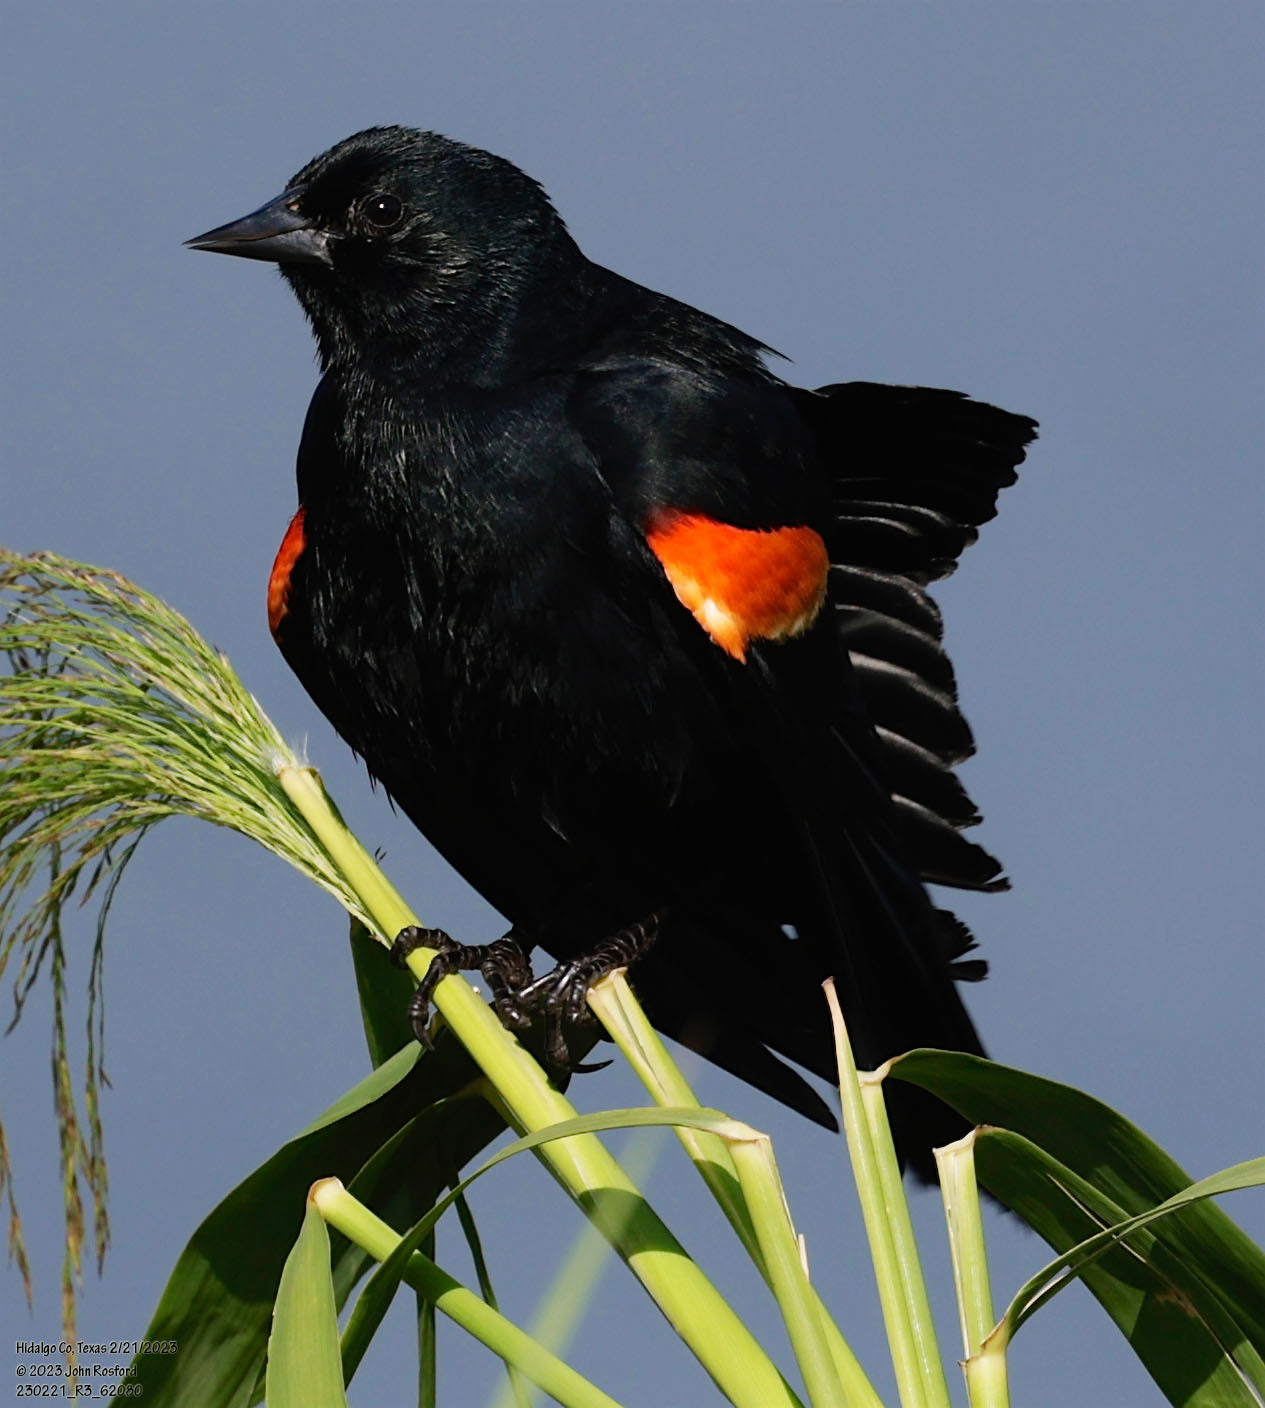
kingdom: Animalia
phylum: Chordata
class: Aves
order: Passeriformes
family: Icteridae
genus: Agelaius
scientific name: Agelaius phoeniceus
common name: Red-winged blackbird
